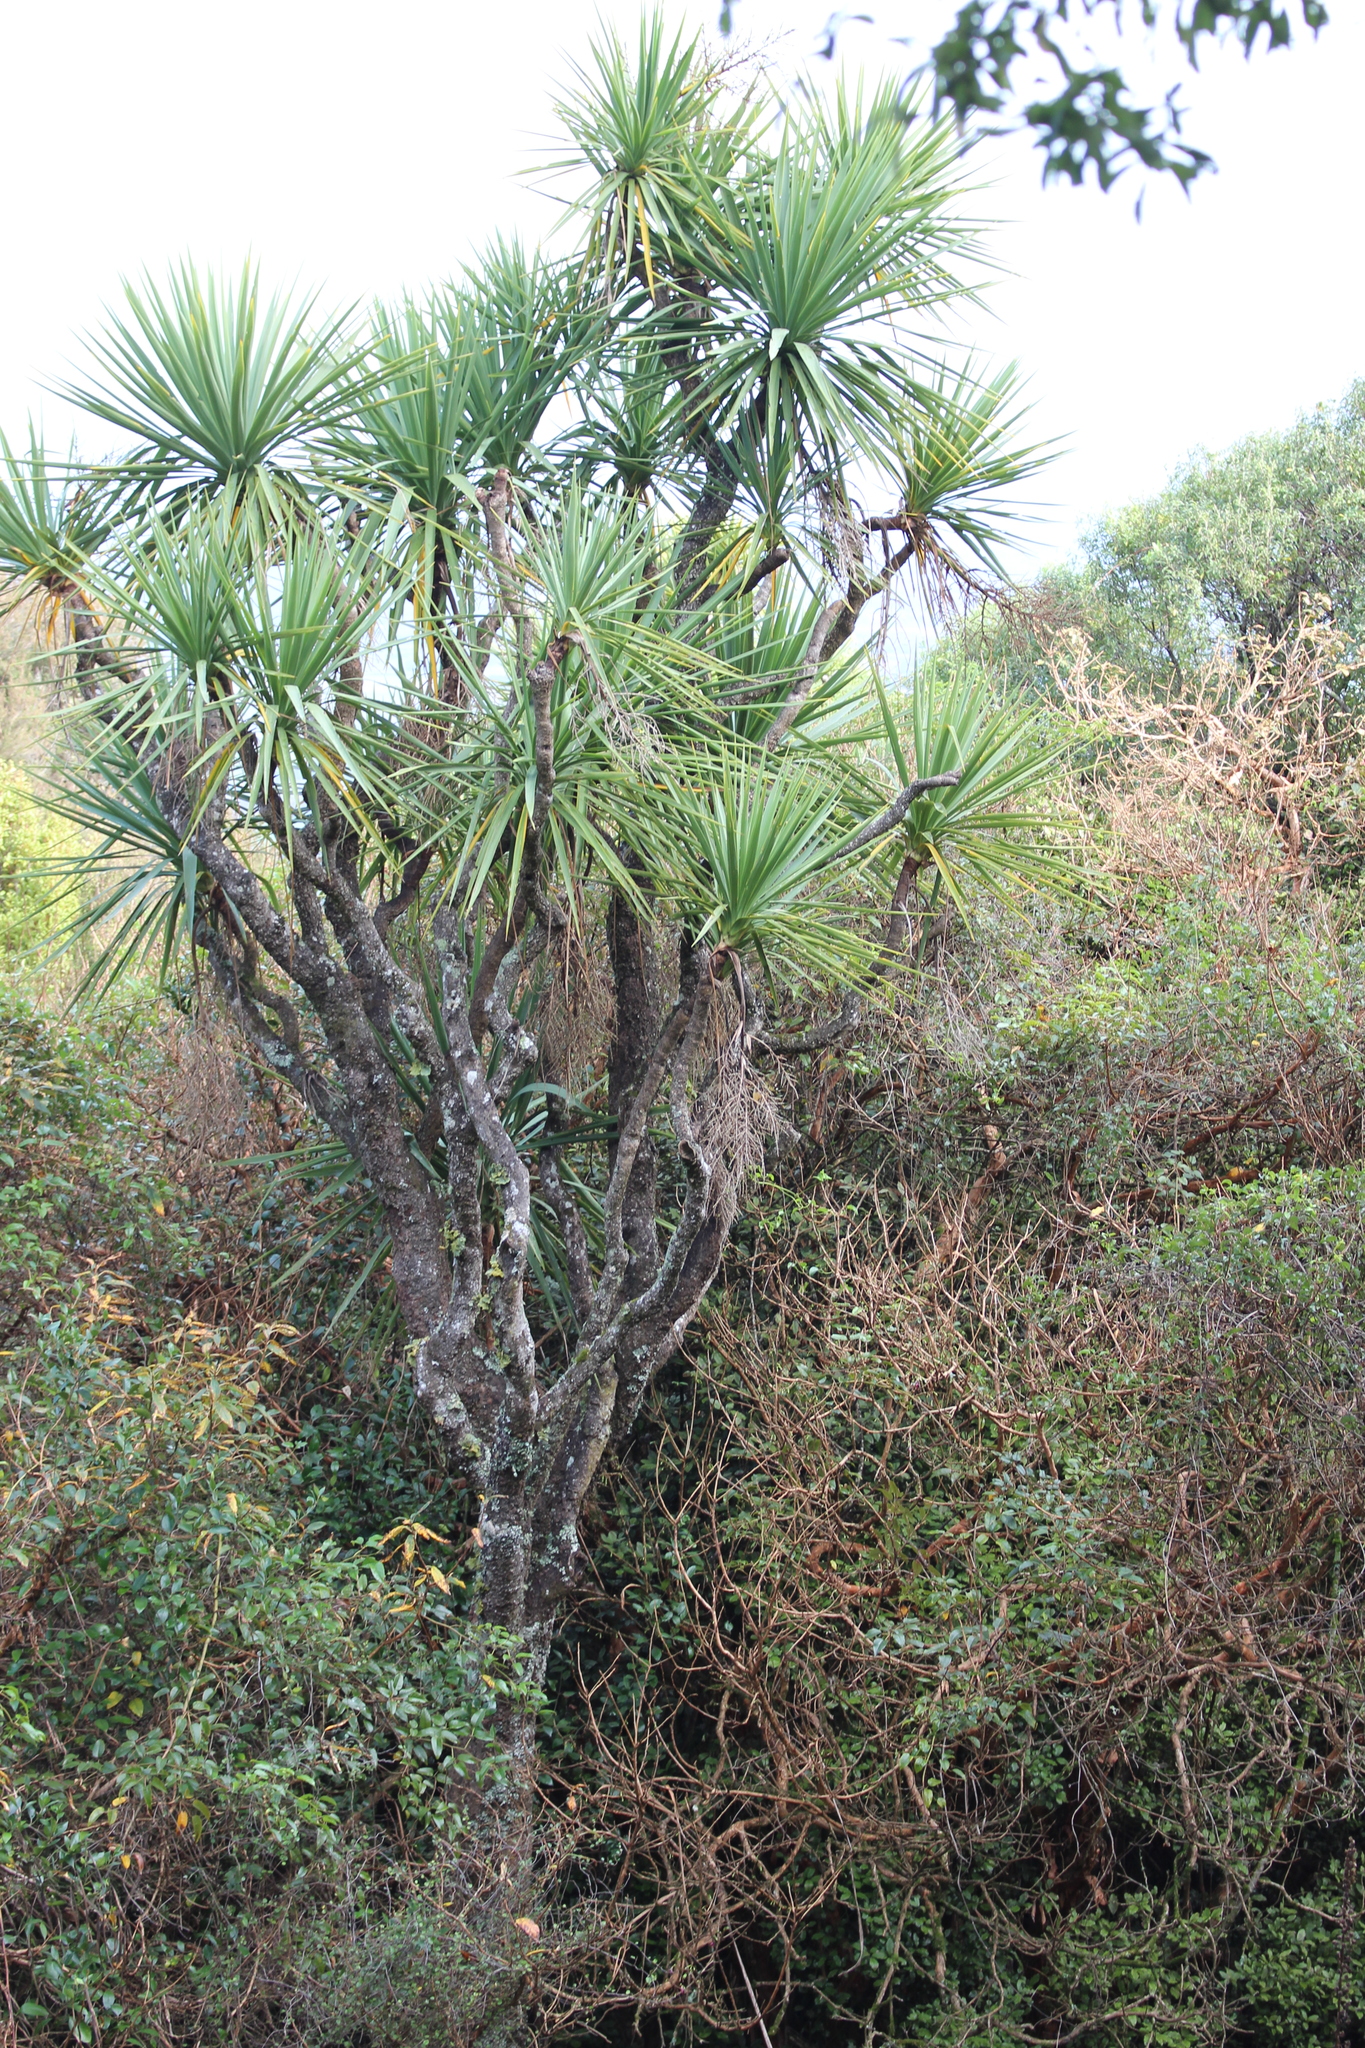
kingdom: Plantae
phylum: Tracheophyta
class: Liliopsida
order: Asparagales
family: Asparagaceae
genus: Cordyline
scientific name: Cordyline australis
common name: Cabbage-palm
